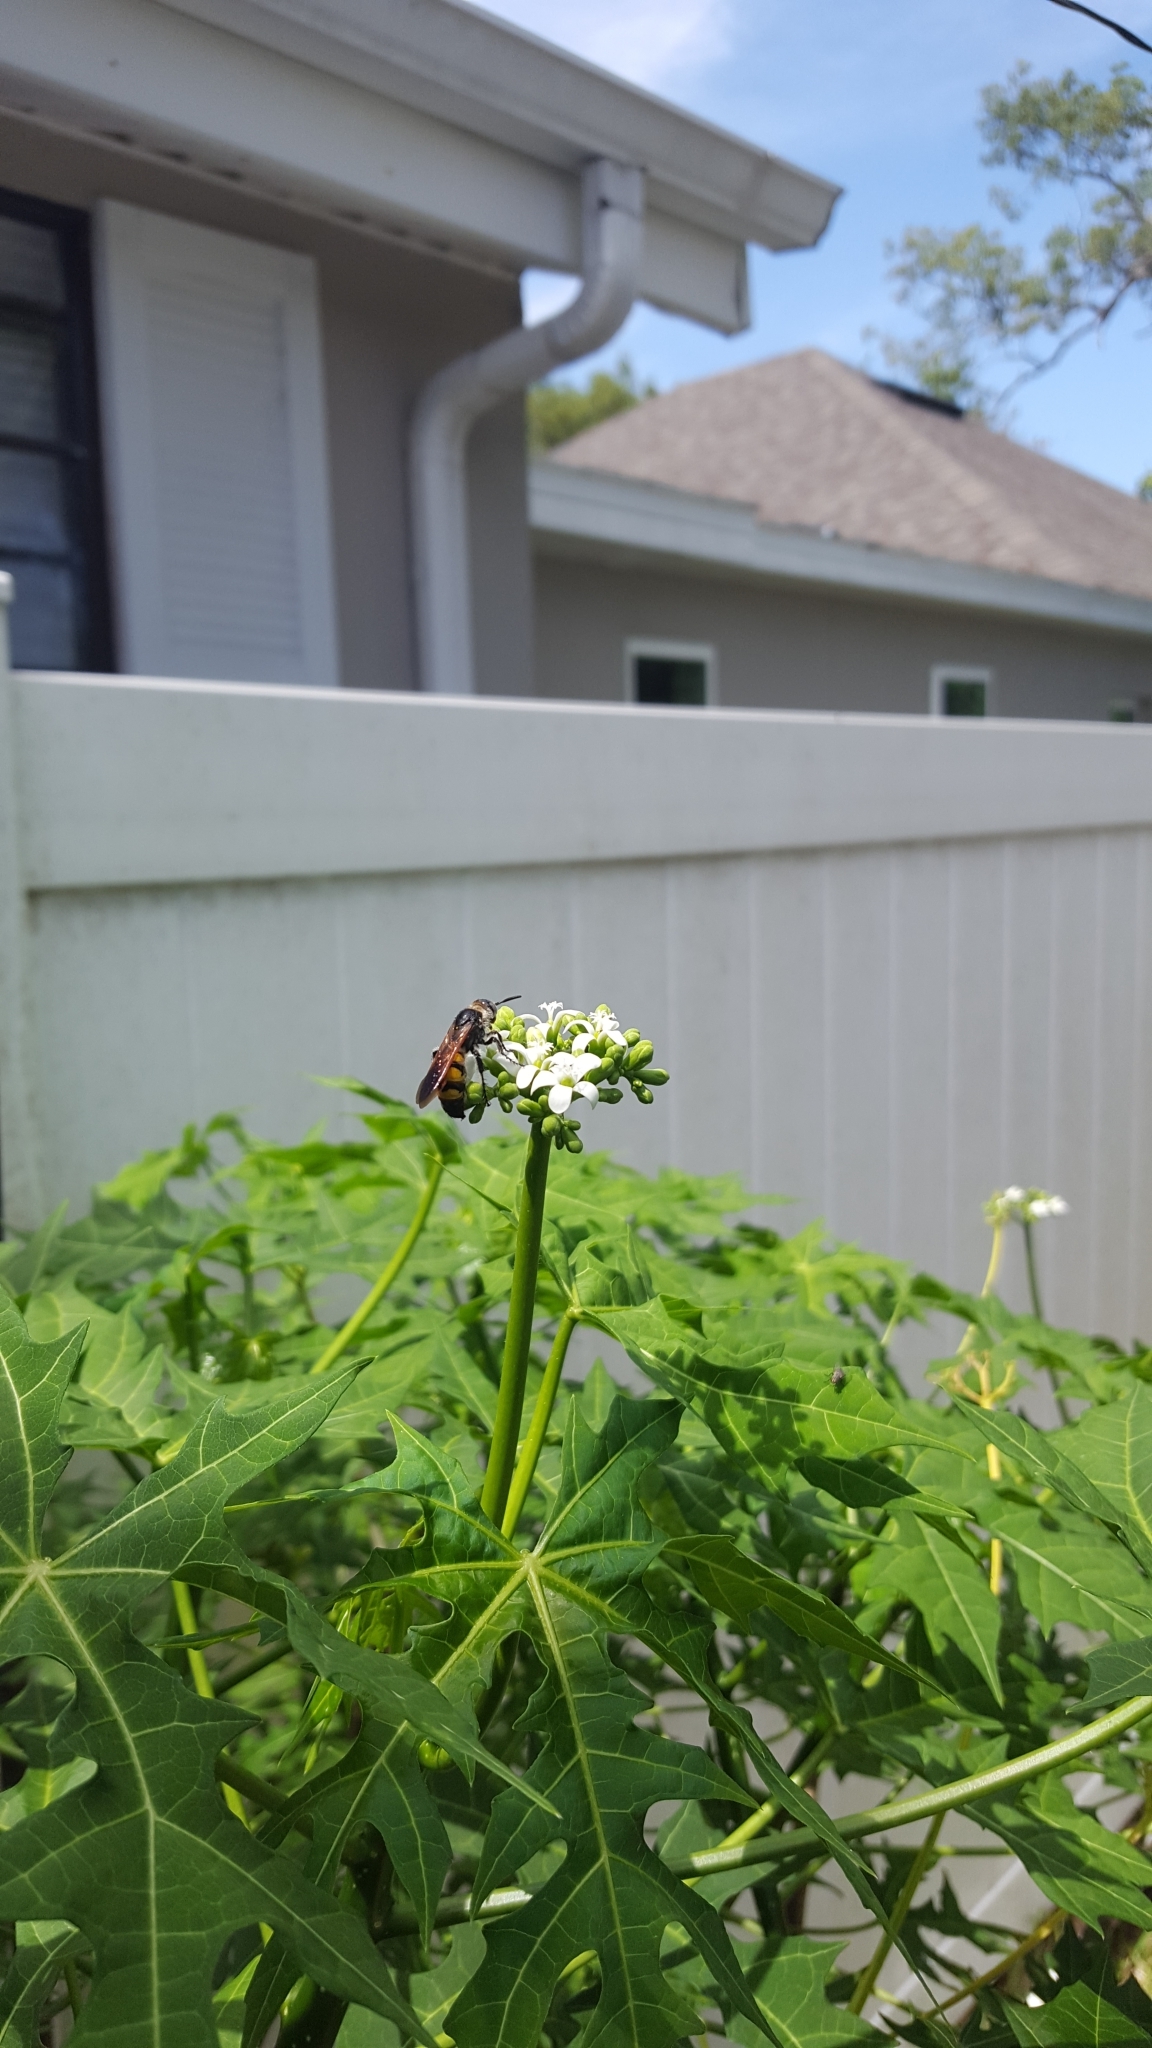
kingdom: Animalia
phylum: Arthropoda
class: Insecta
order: Hymenoptera
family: Scoliidae
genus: Dielis
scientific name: Dielis
